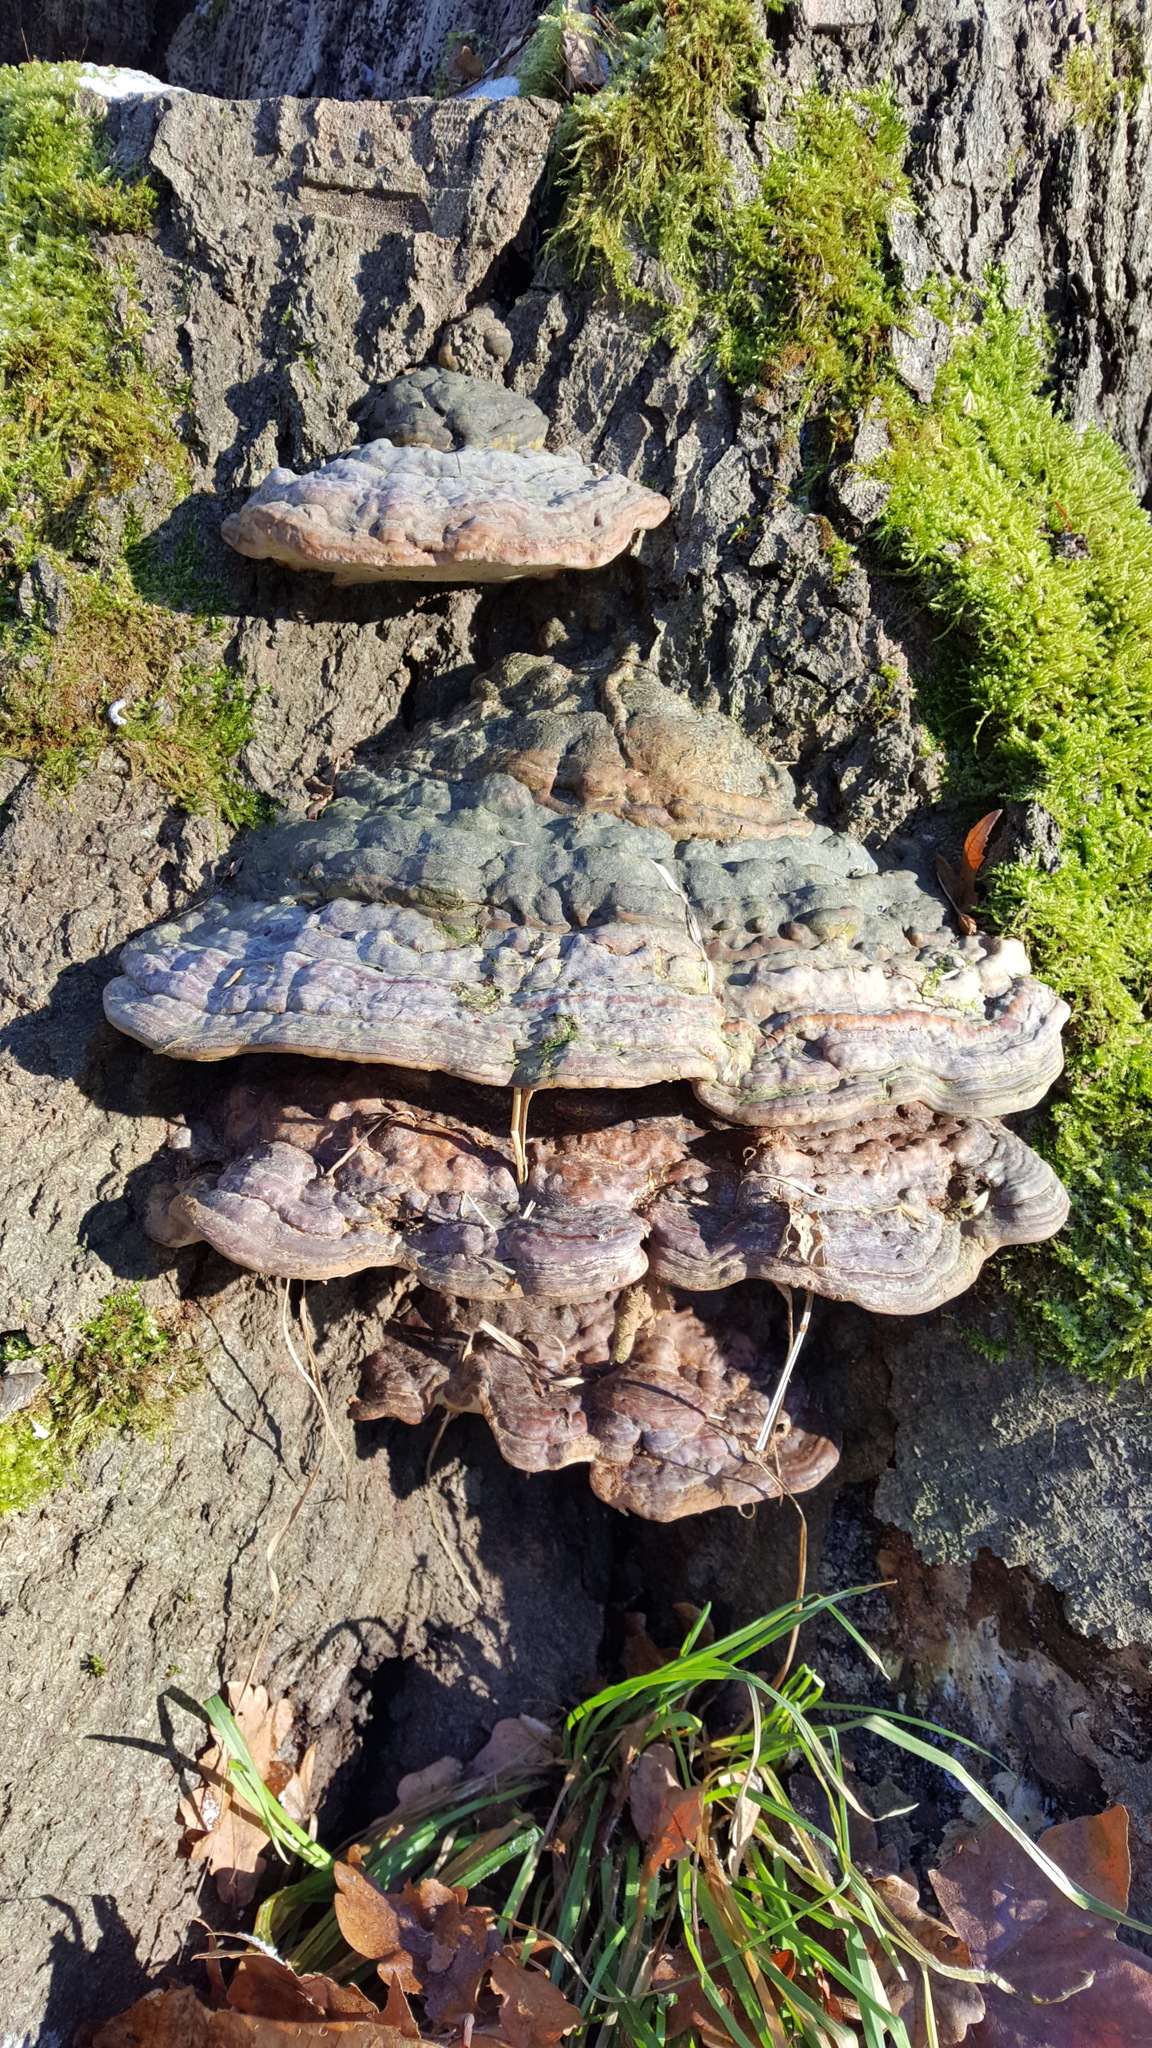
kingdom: Fungi
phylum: Basidiomycota
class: Agaricomycetes
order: Polyporales
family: Polyporaceae
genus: Fomes
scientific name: Fomes fomentarius
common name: Hoof fungus
